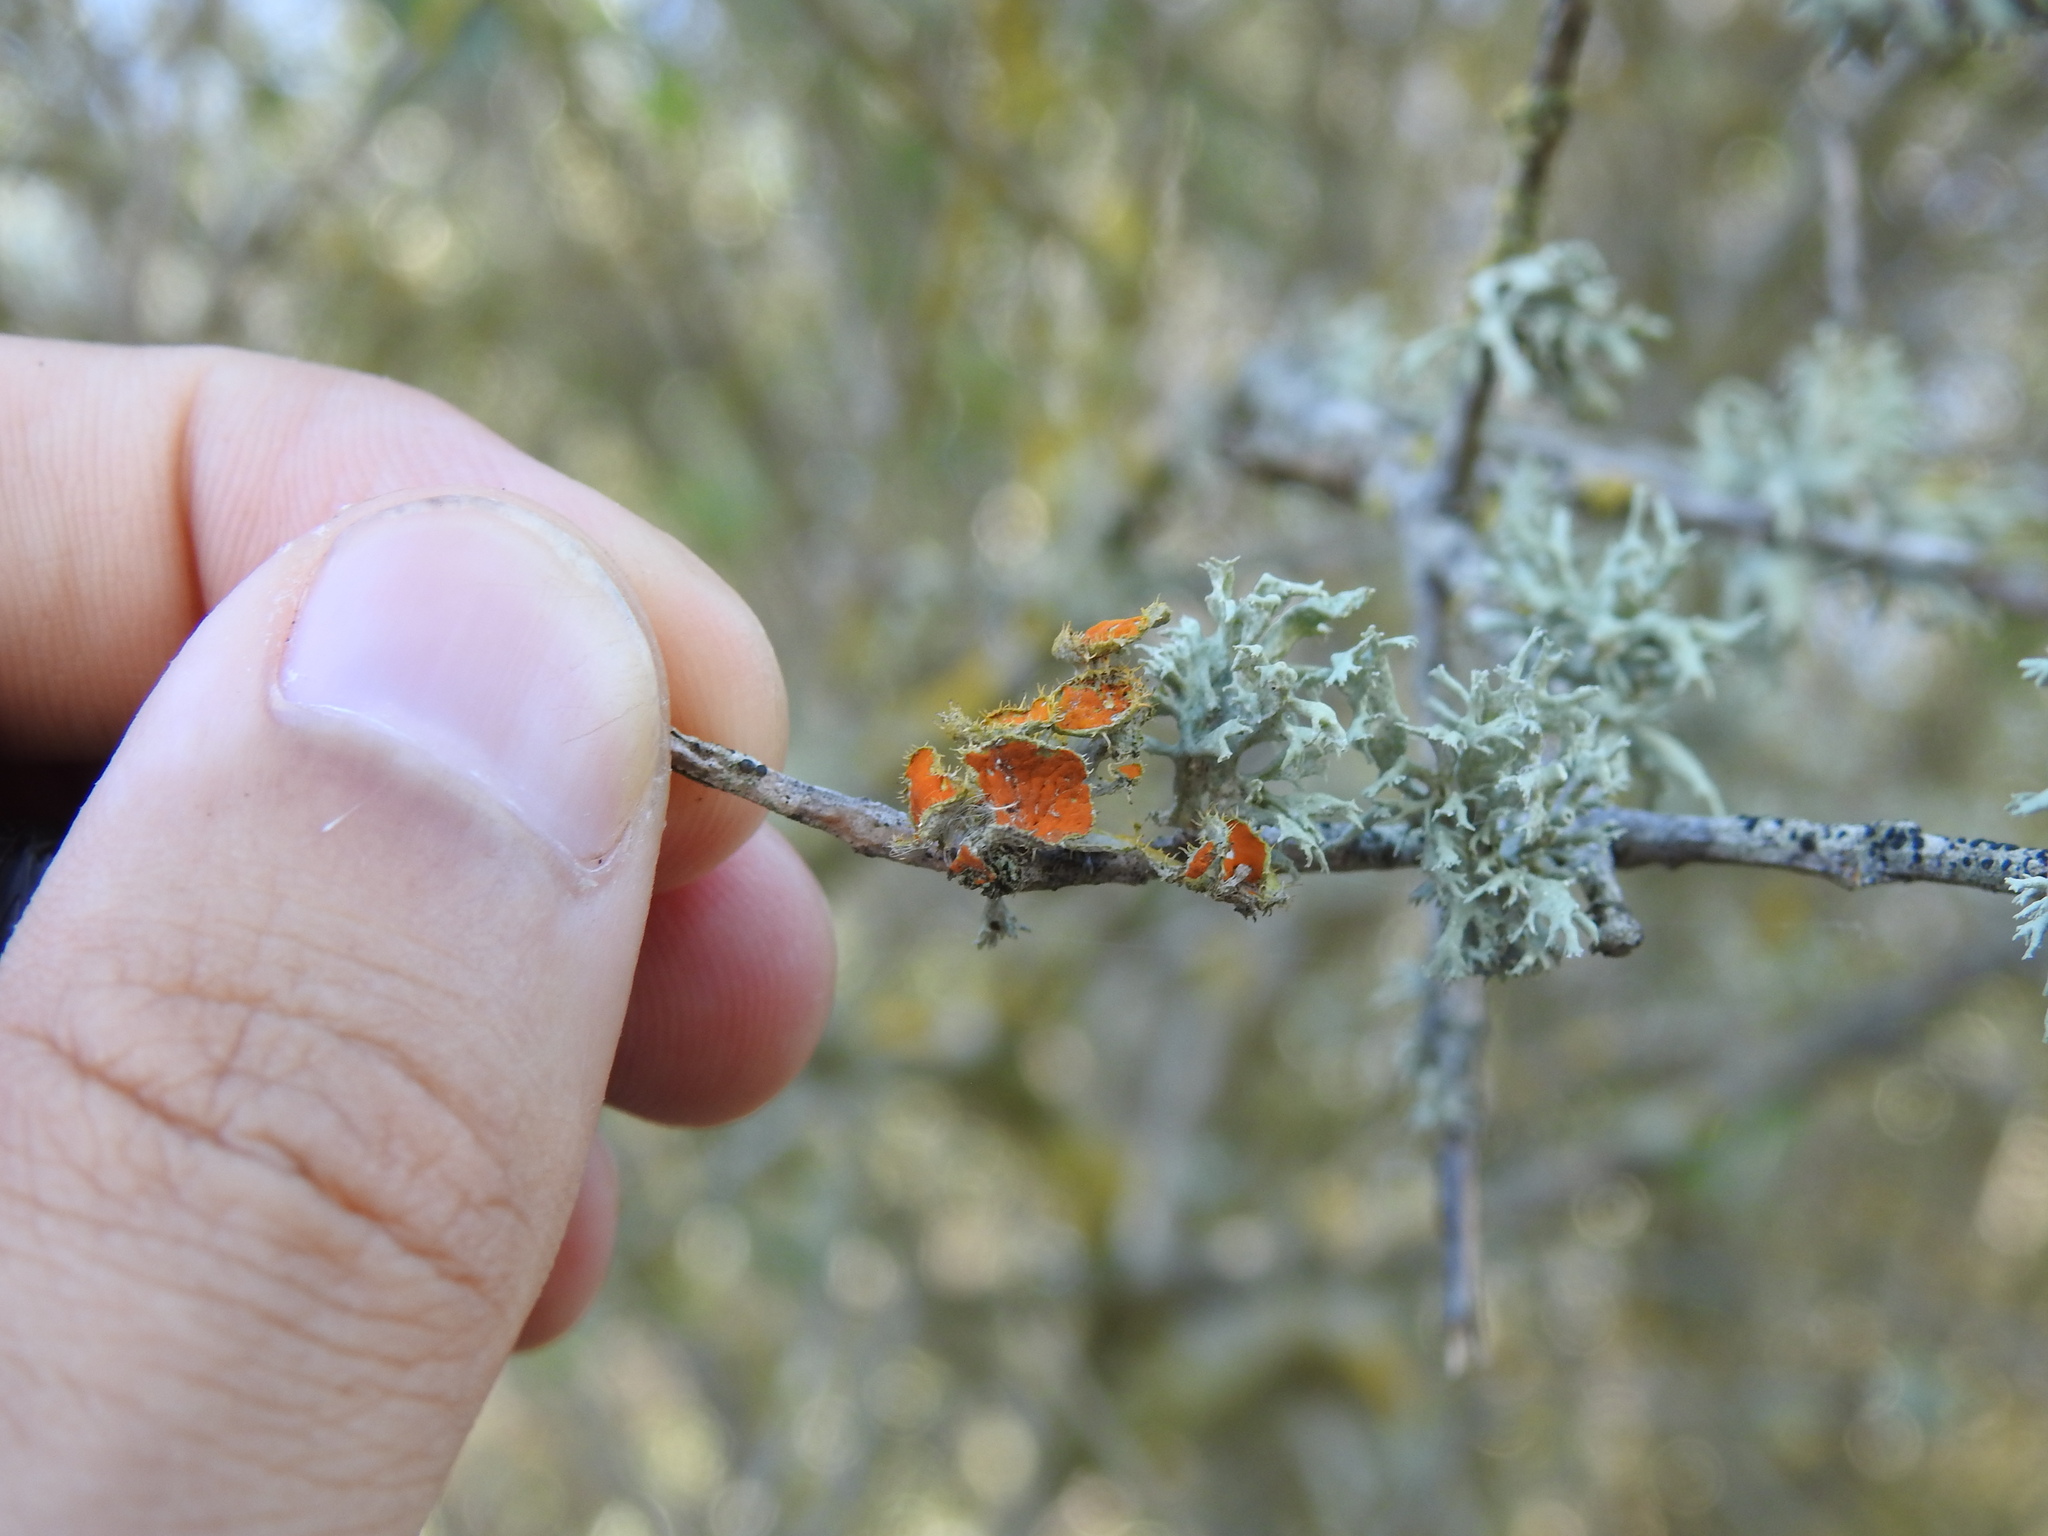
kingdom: Fungi
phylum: Ascomycota
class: Lecanoromycetes
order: Teloschistales
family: Teloschistaceae
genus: Niorma
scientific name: Niorma chrysophthalma
